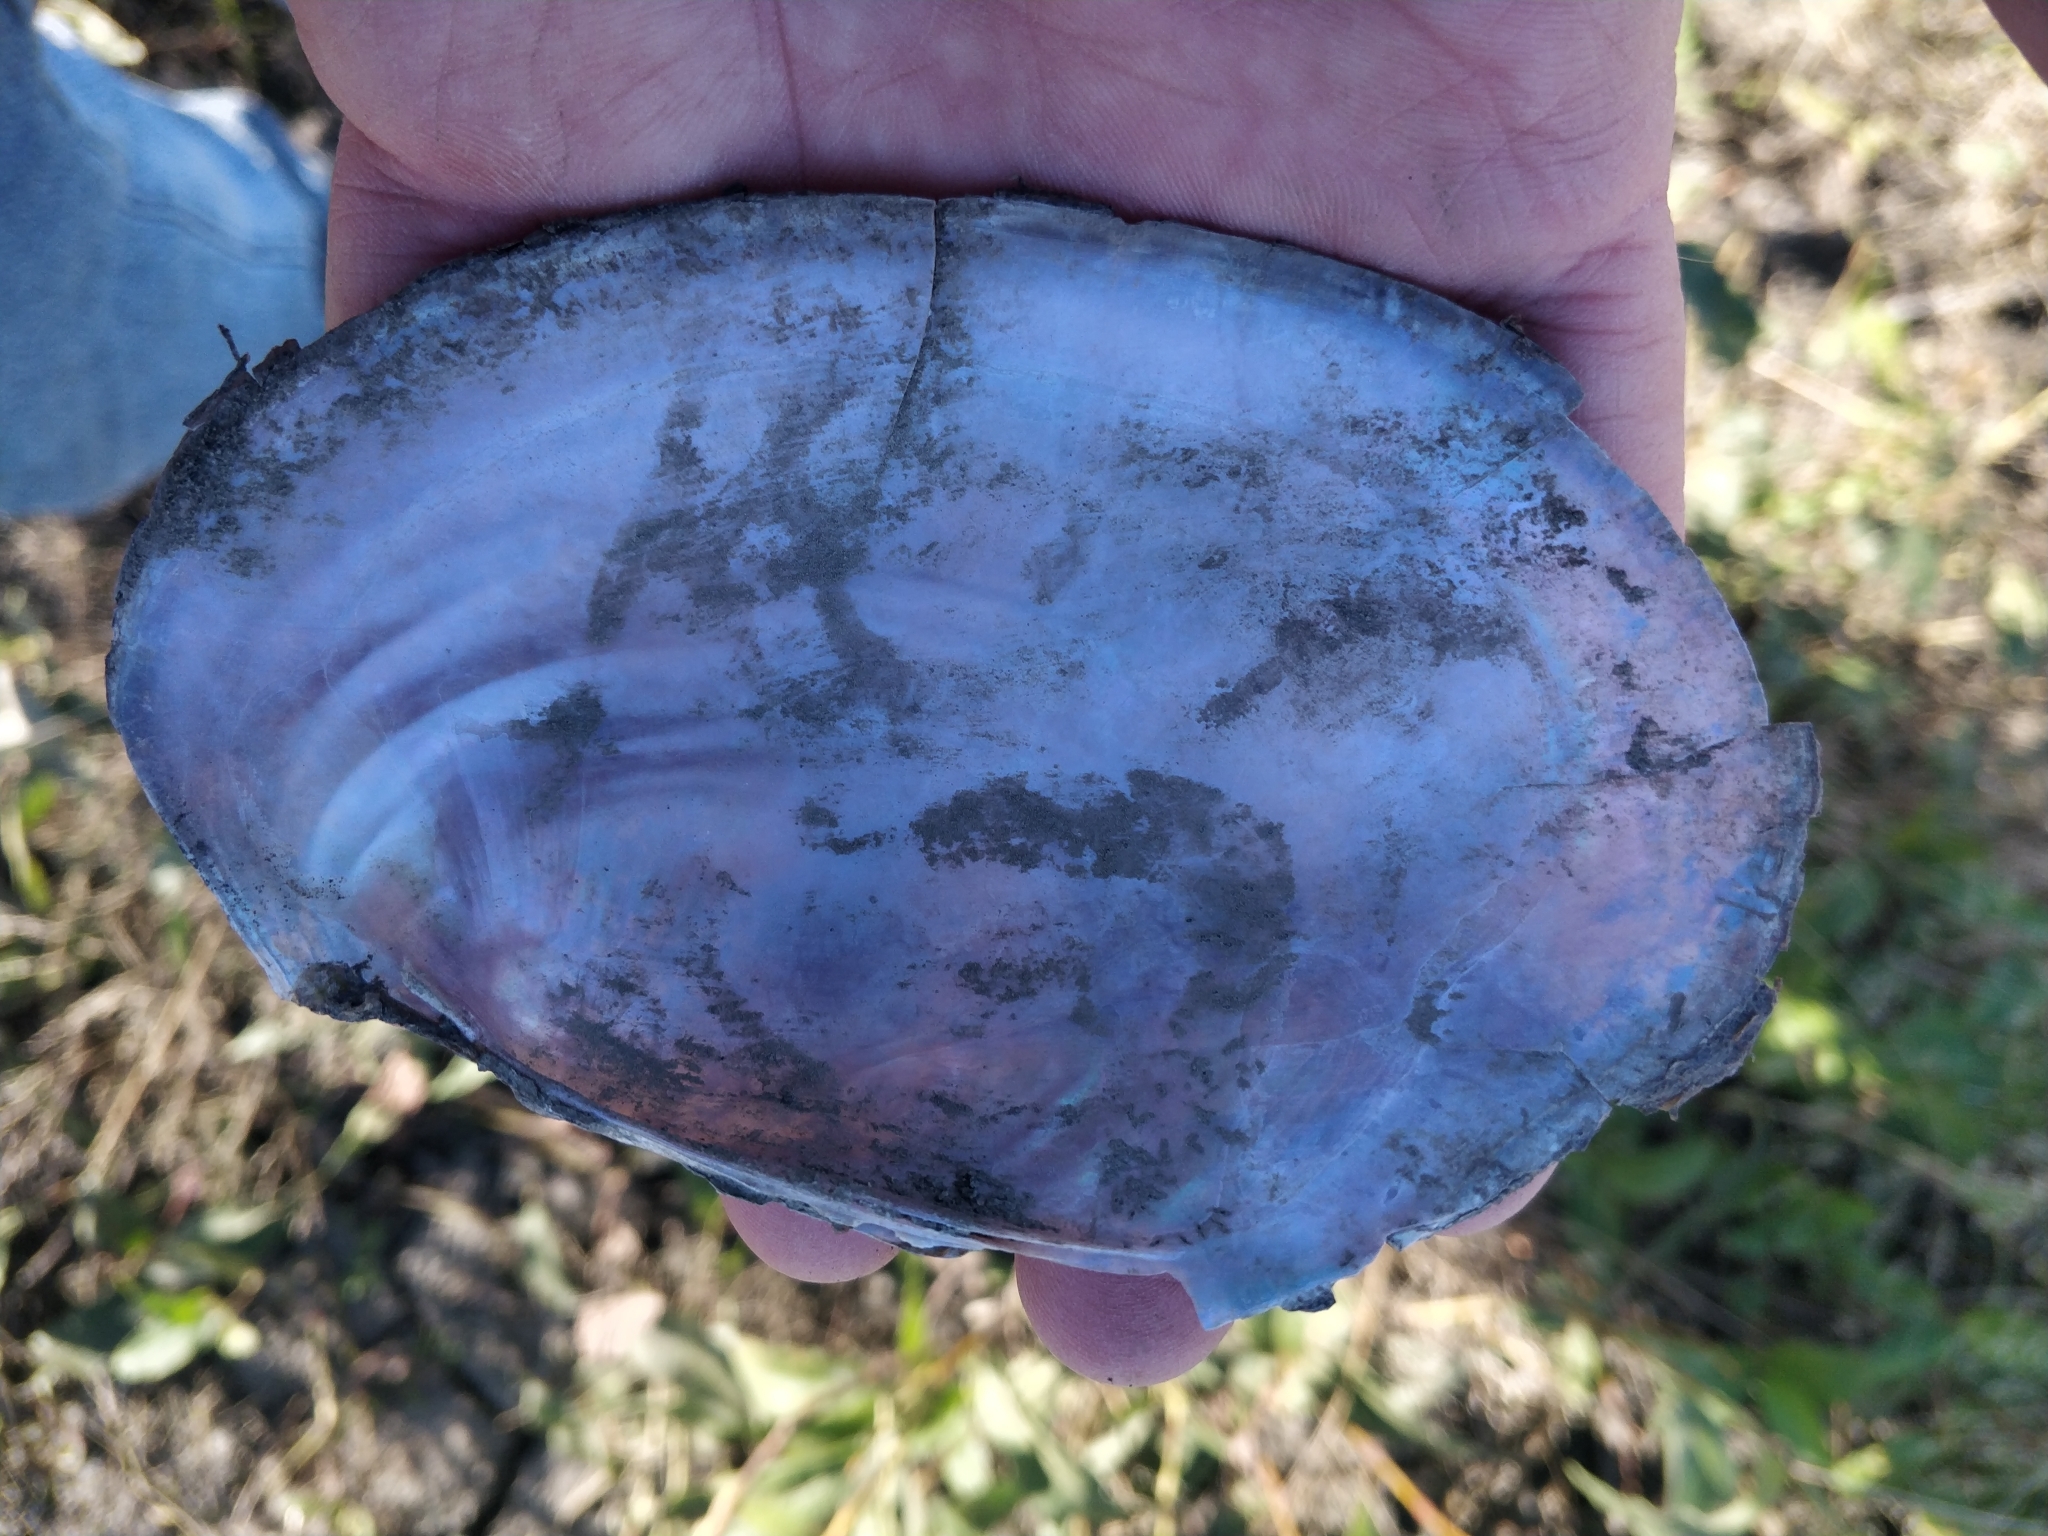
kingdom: Animalia
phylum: Mollusca
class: Bivalvia
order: Unionida
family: Unionidae
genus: Potamilus
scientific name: Potamilus ohiensis
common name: Pink papershell
